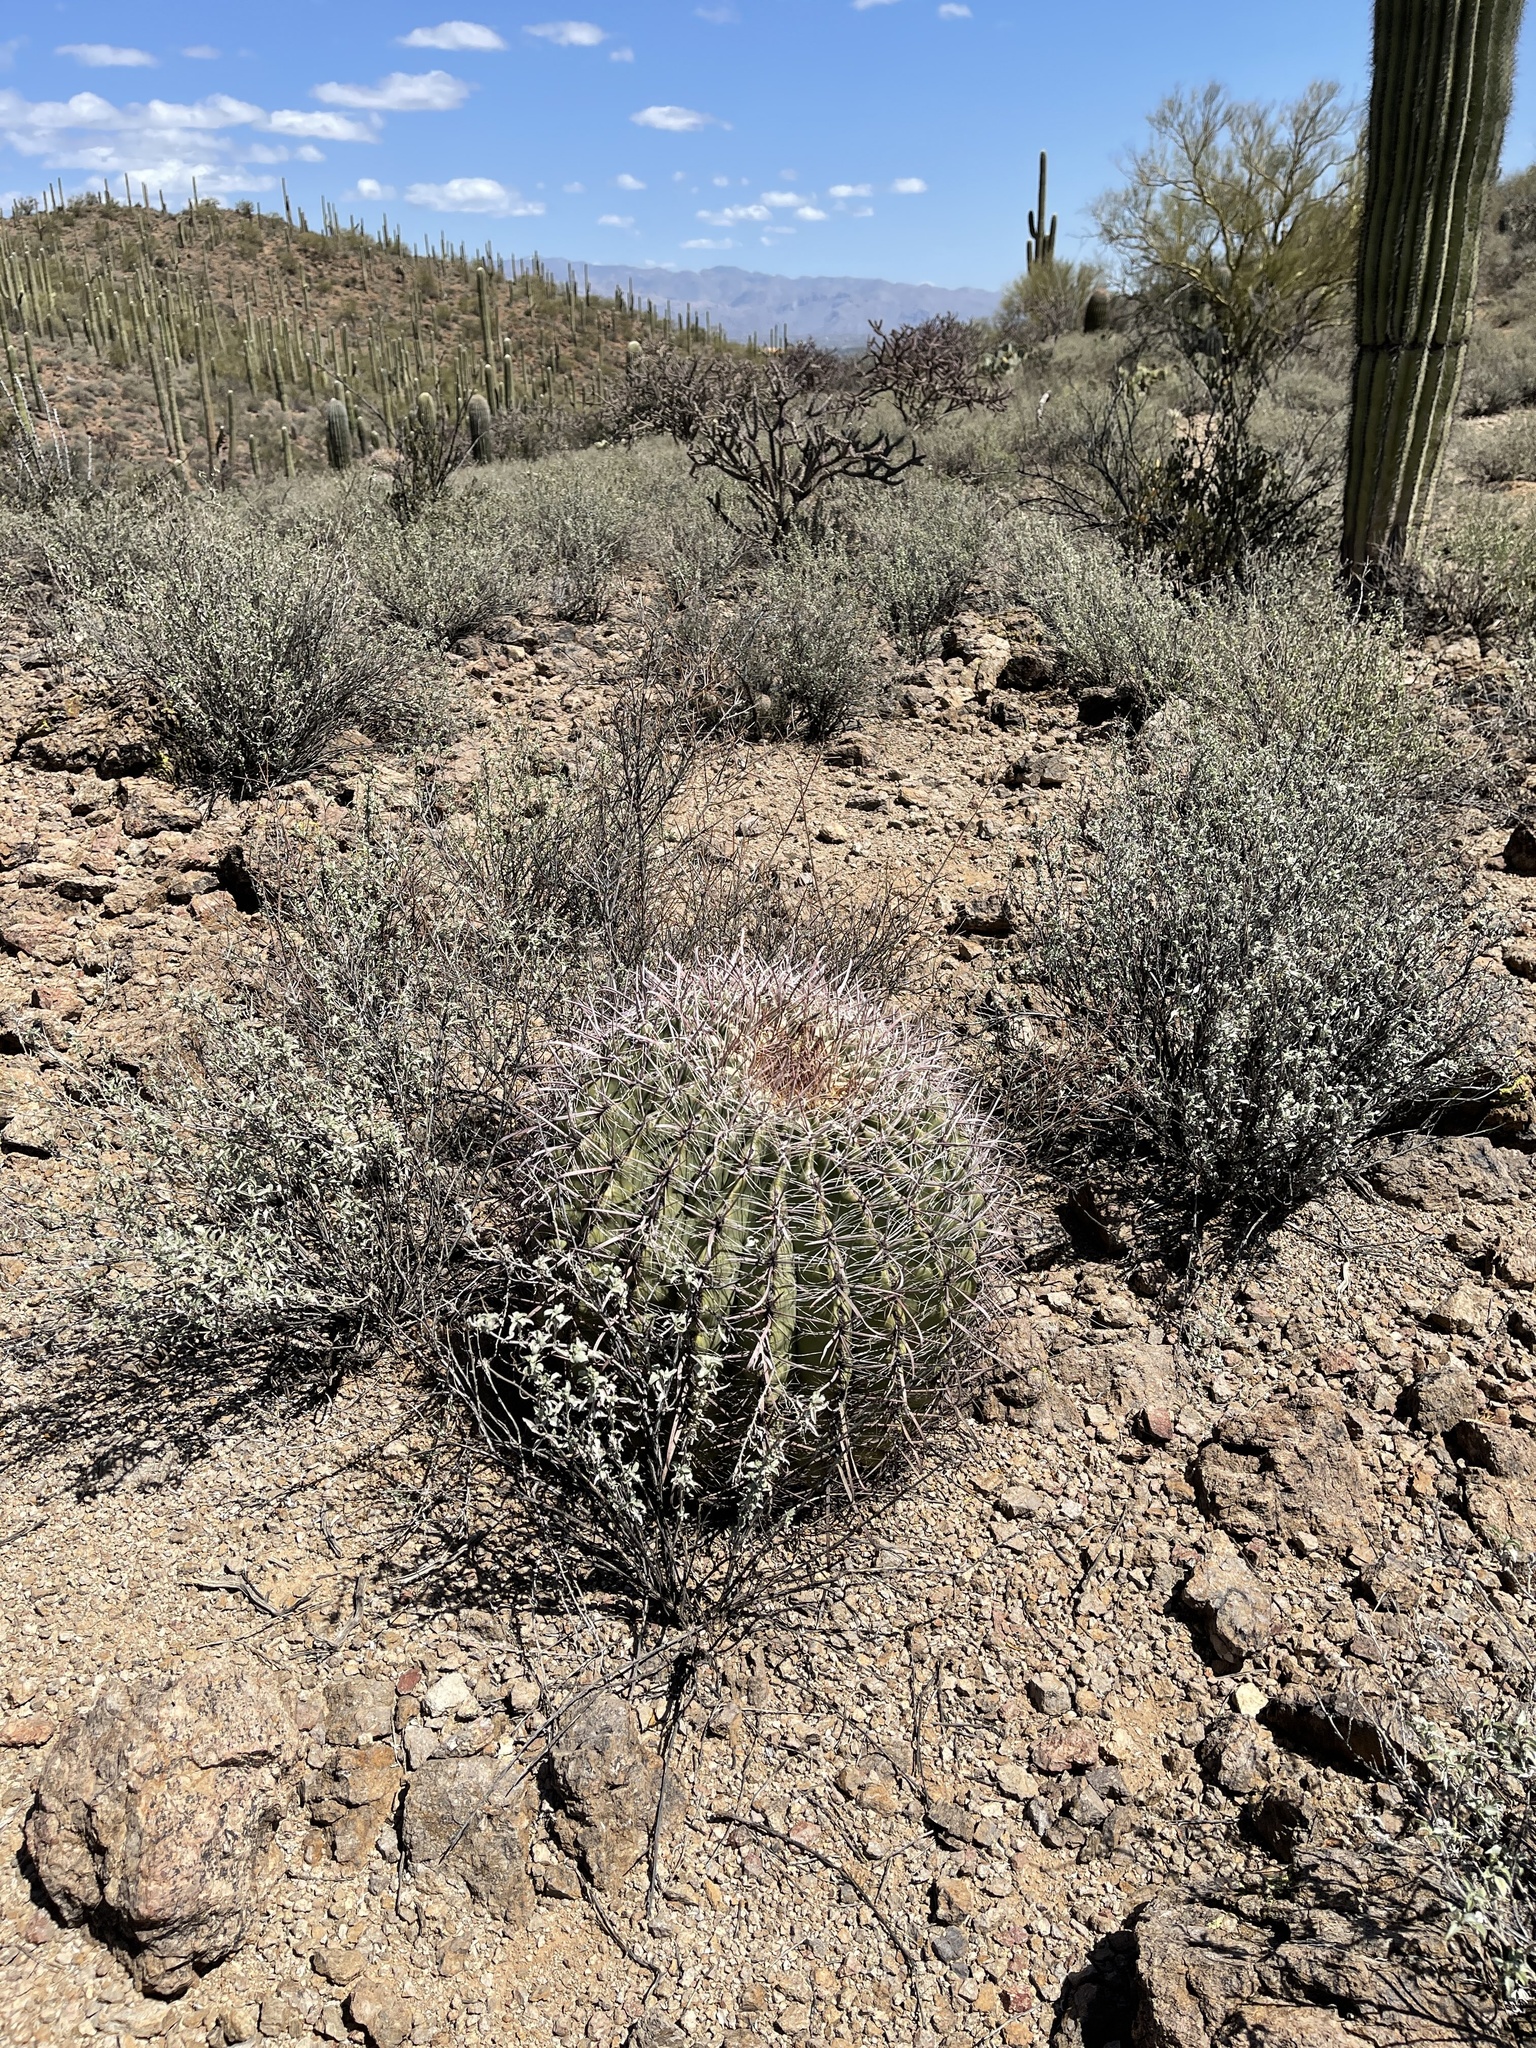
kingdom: Plantae
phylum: Tracheophyta
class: Magnoliopsida
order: Caryophyllales
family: Cactaceae
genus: Ferocactus
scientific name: Ferocactus wislizeni
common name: Candy barrel cactus
